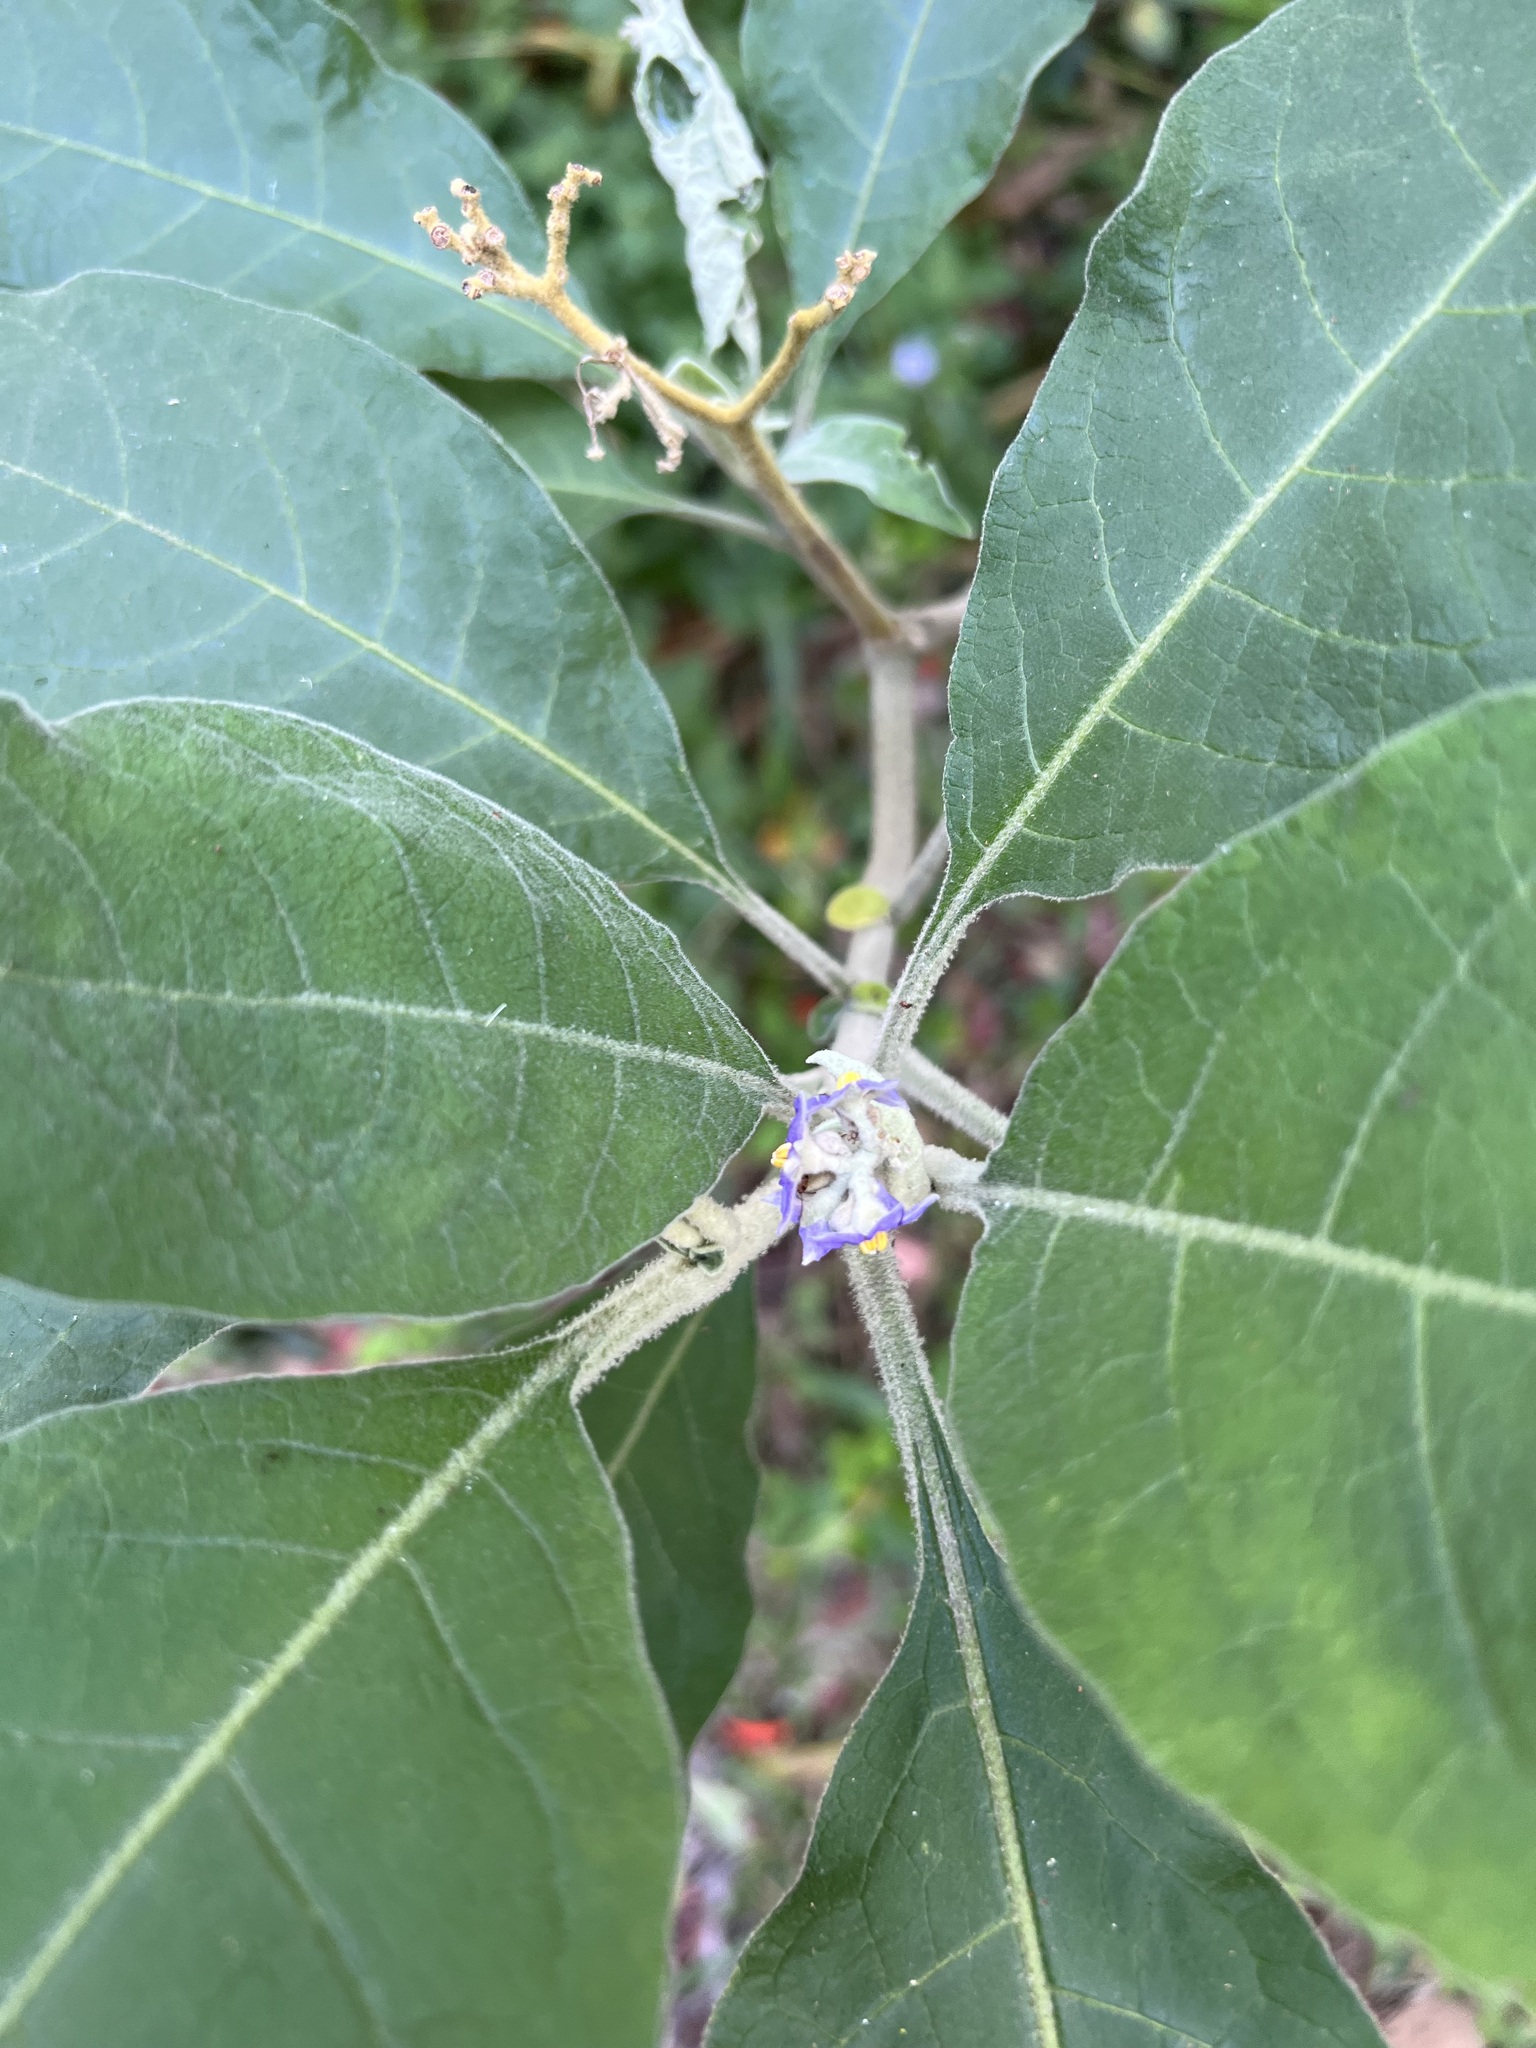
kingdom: Plantae
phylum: Tracheophyta
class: Magnoliopsida
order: Solanales
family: Solanaceae
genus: Solanum
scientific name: Solanum mauritianum
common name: Earleaf nightshade
